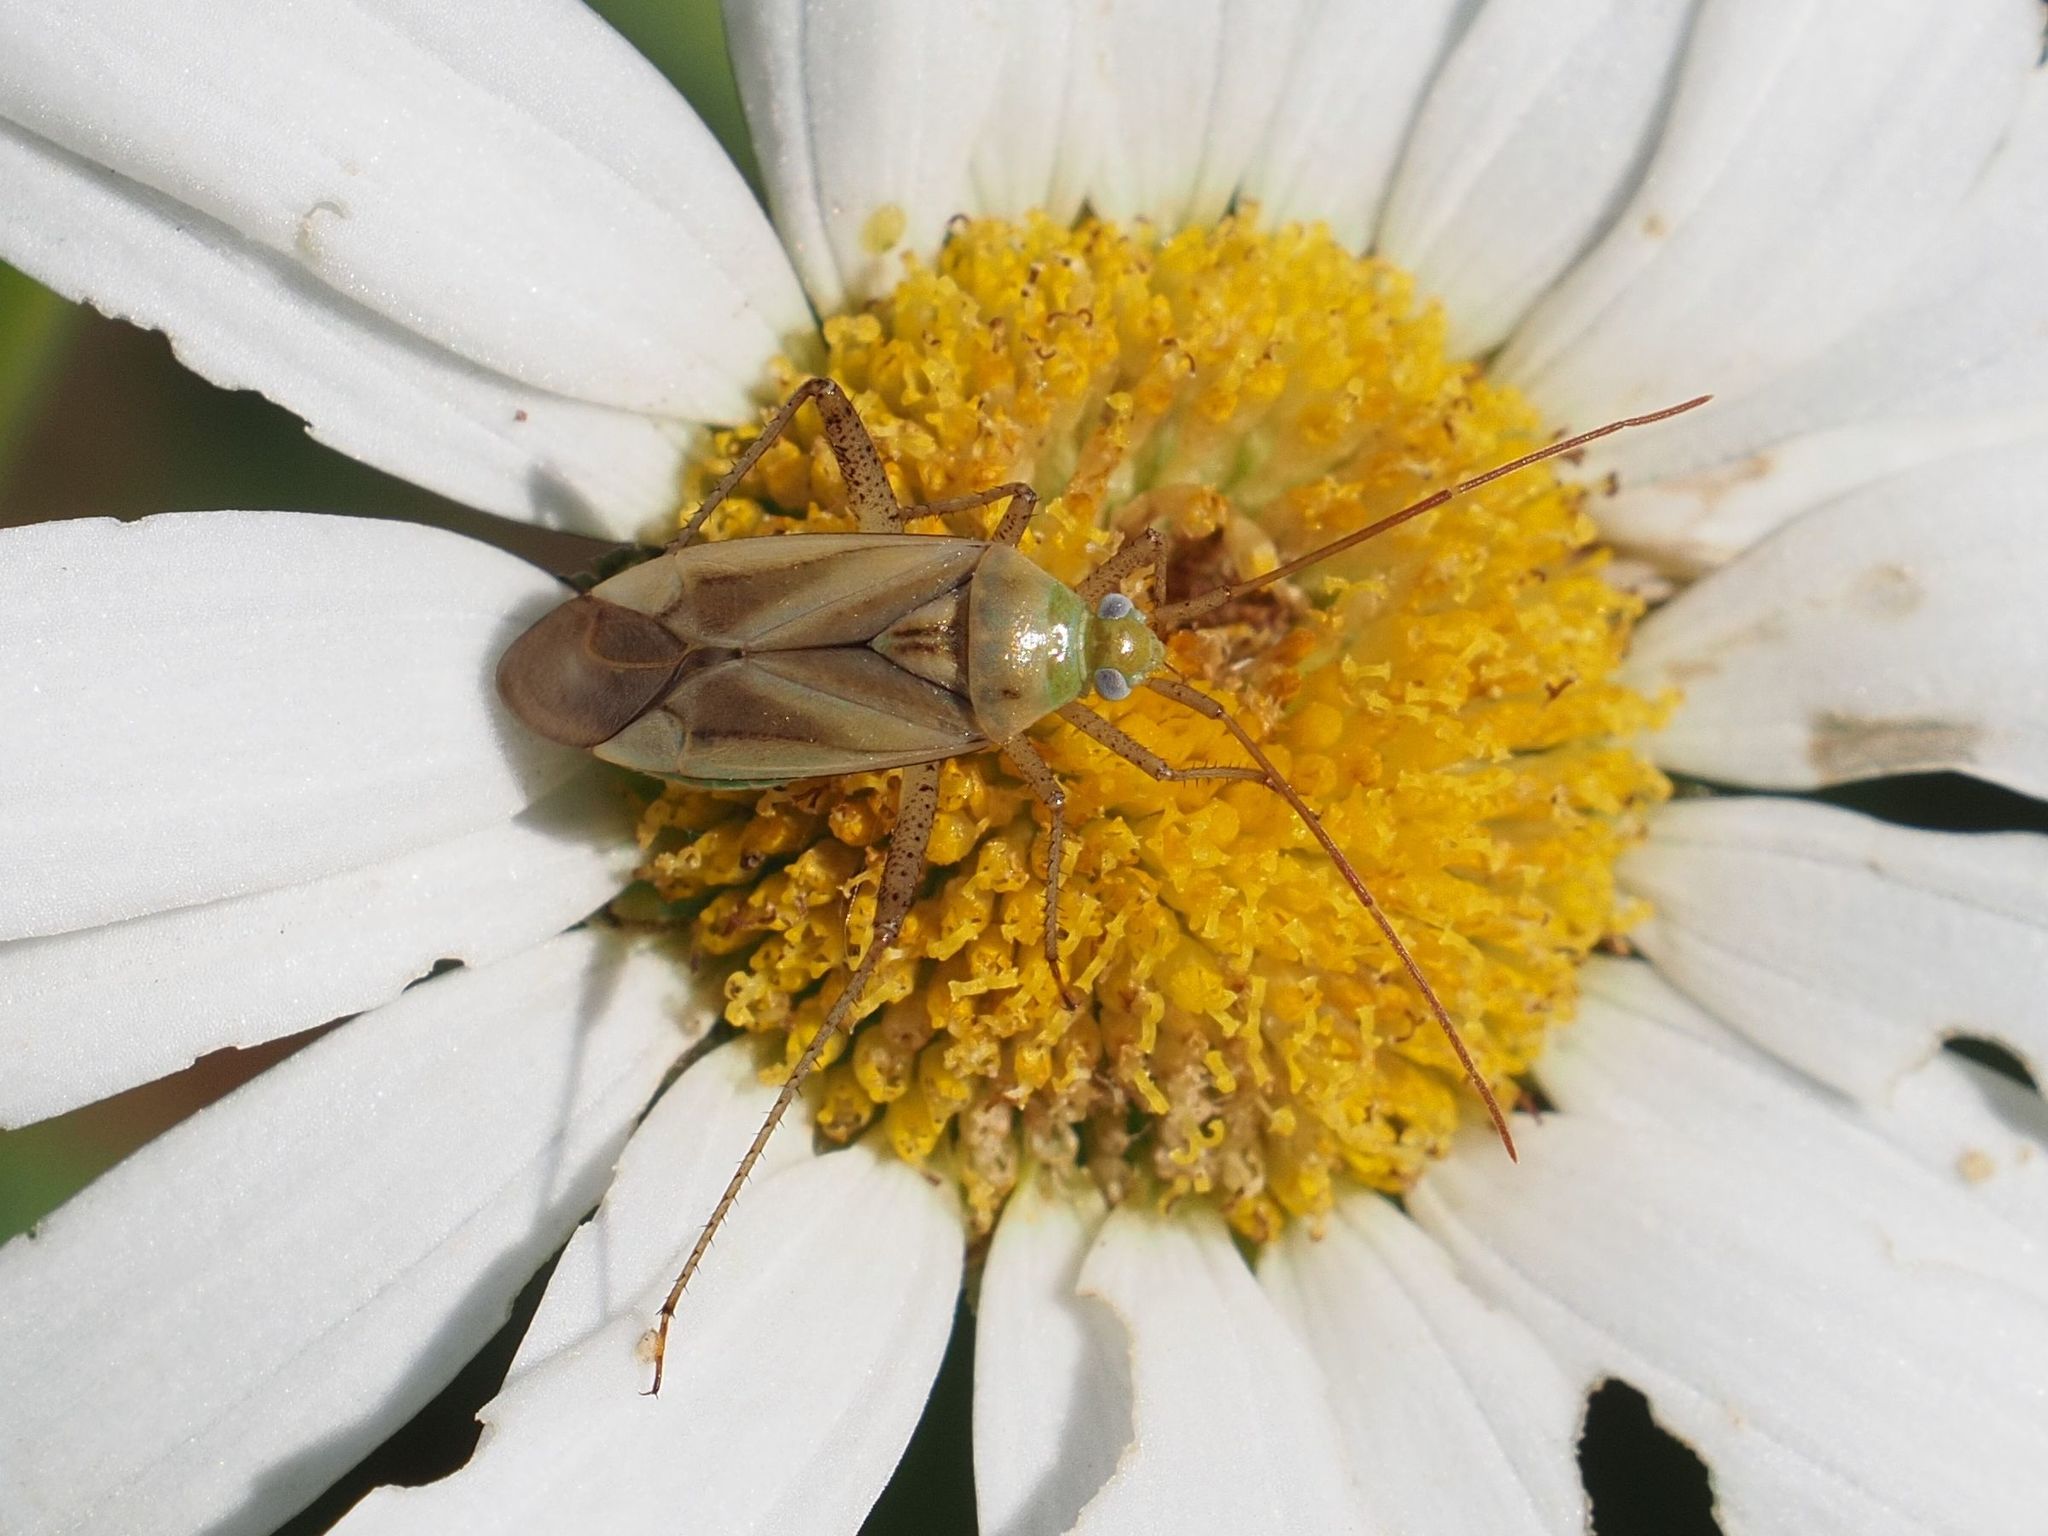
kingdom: Animalia
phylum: Arthropoda
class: Insecta
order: Hemiptera
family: Miridae
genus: Adelphocoris
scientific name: Adelphocoris lineolatus
